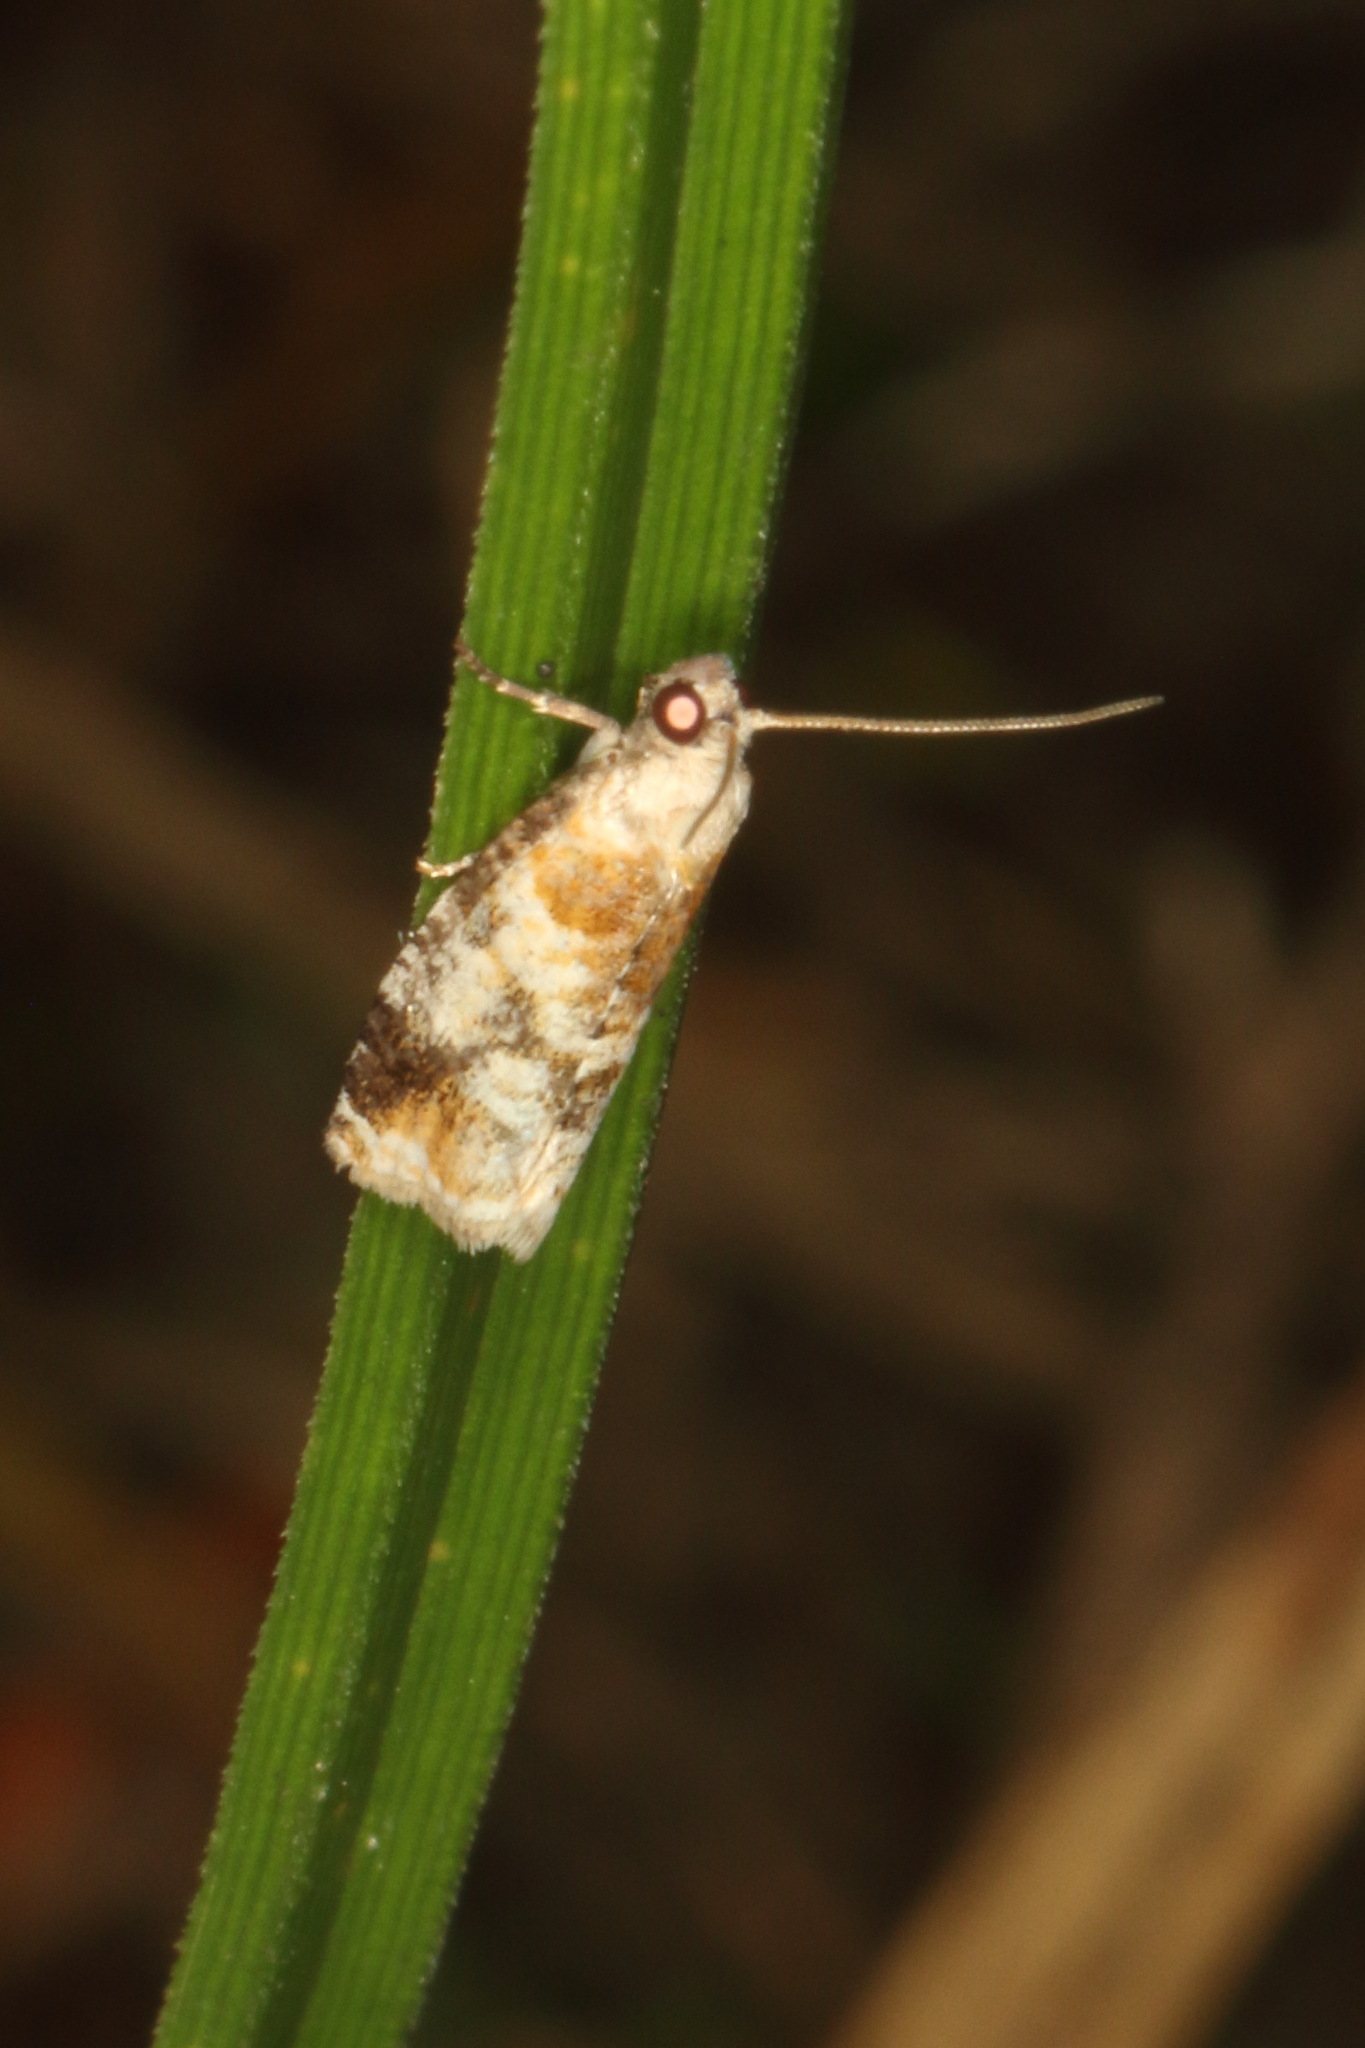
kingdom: Animalia
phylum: Arthropoda
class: Insecta
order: Lepidoptera
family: Tortricidae
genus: Pyrgotis
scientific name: Pyrgotis calligypsa
